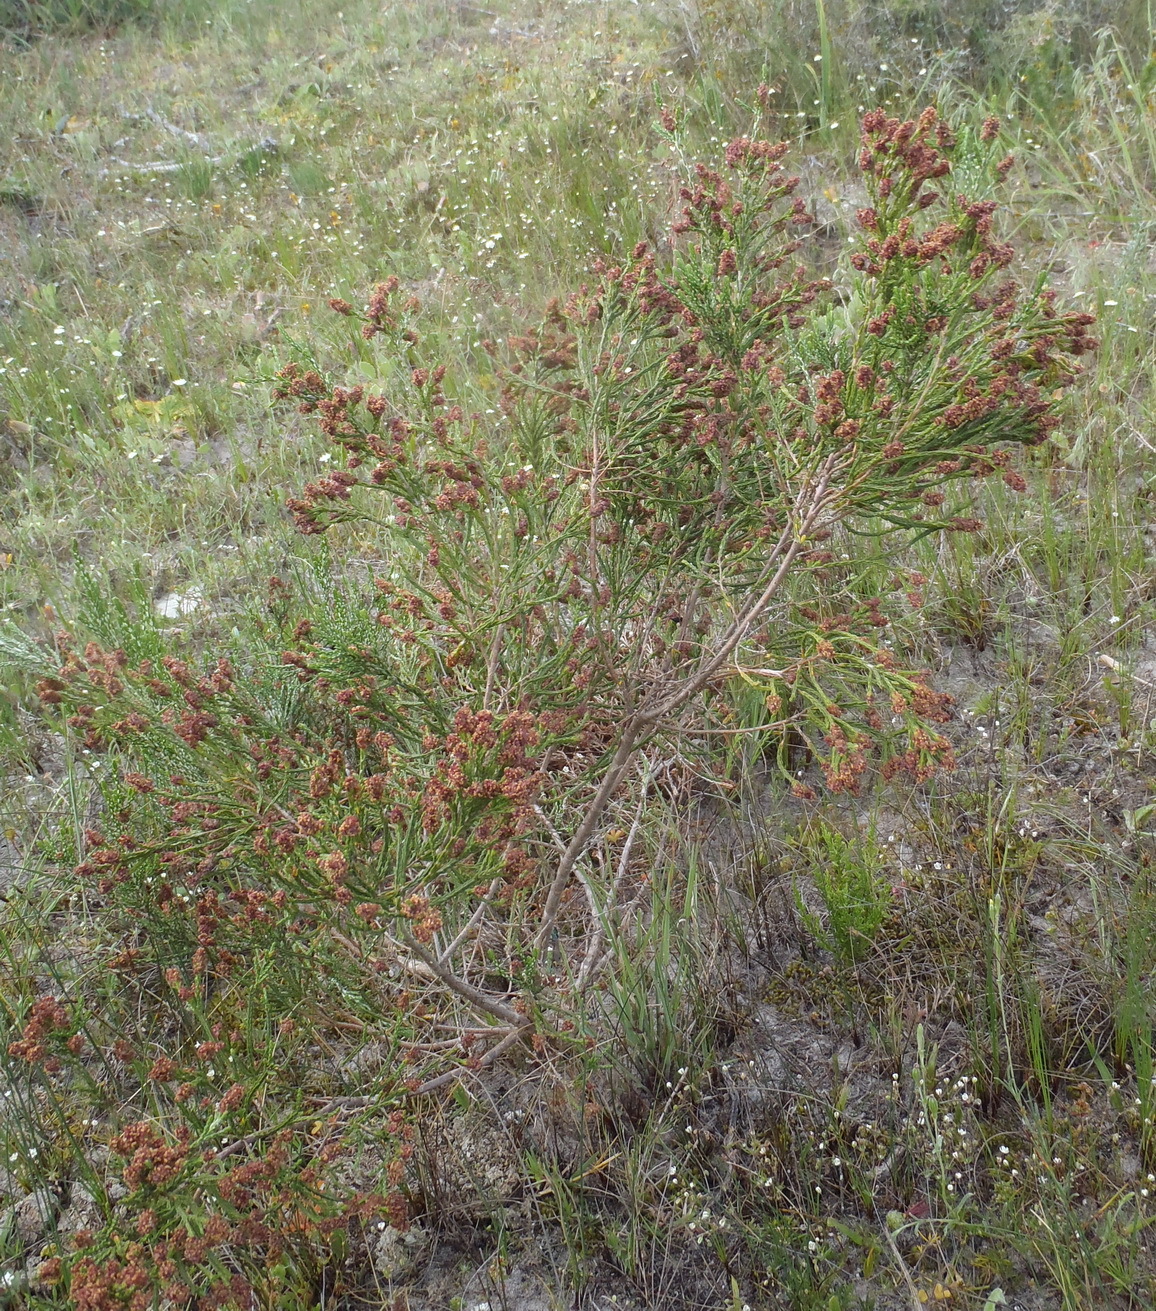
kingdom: Plantae
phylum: Tracheophyta
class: Magnoliopsida
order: Malvales
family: Thymelaeaceae
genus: Passerina
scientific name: Passerina paleacea
